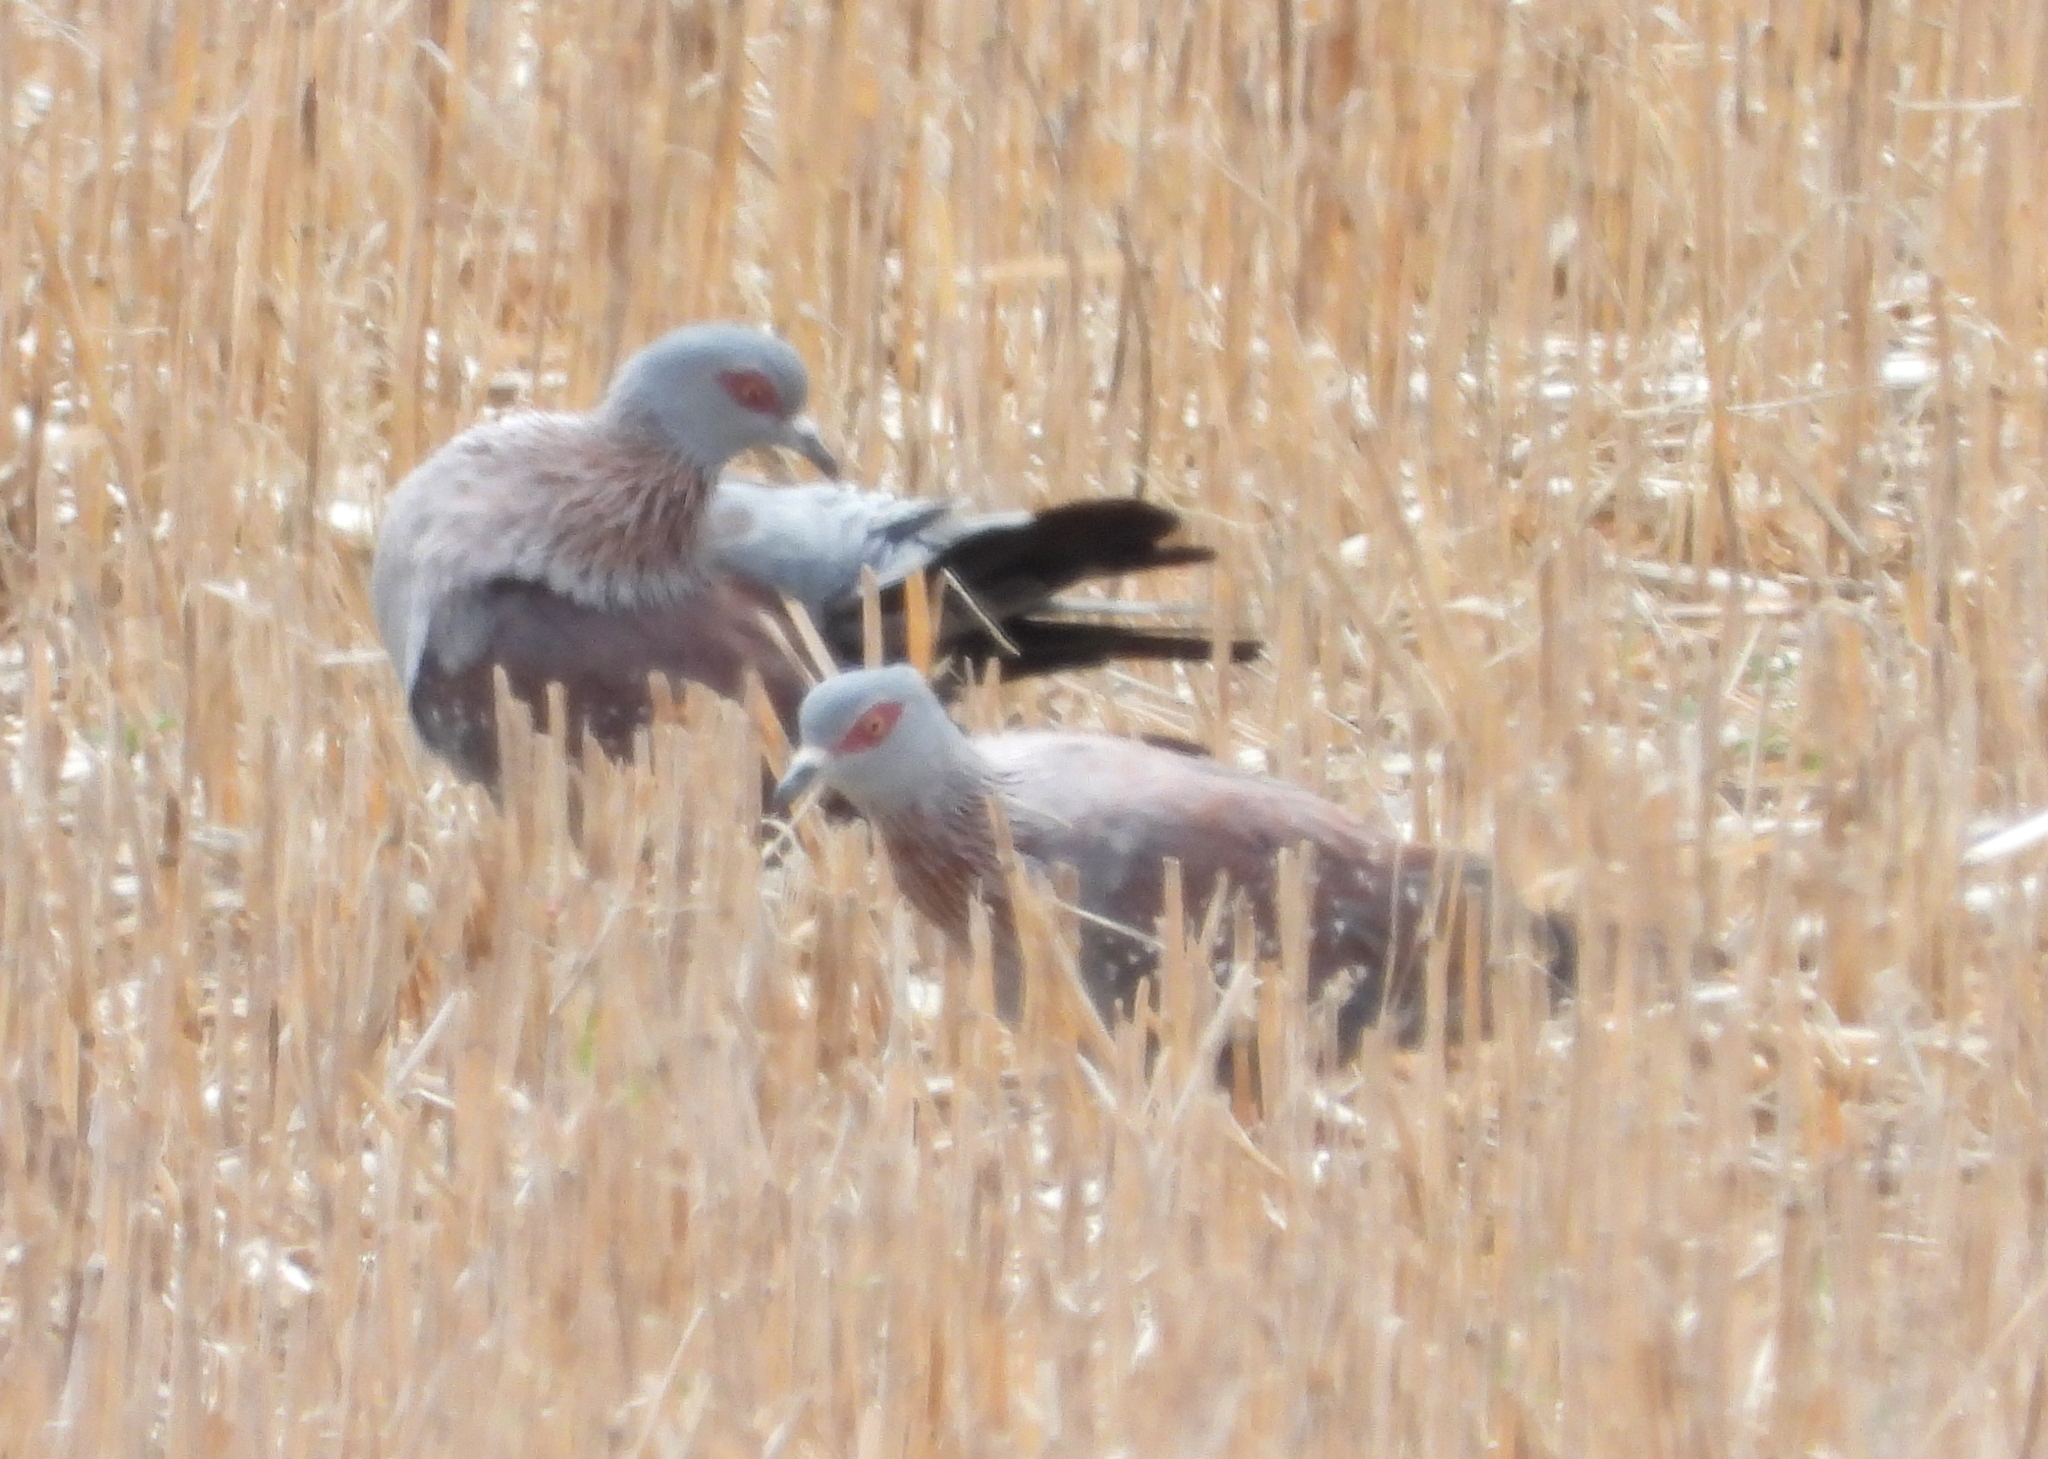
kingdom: Animalia
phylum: Chordata
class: Aves
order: Columbiformes
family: Columbidae
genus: Columba
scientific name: Columba guinea
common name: Speckled pigeon
